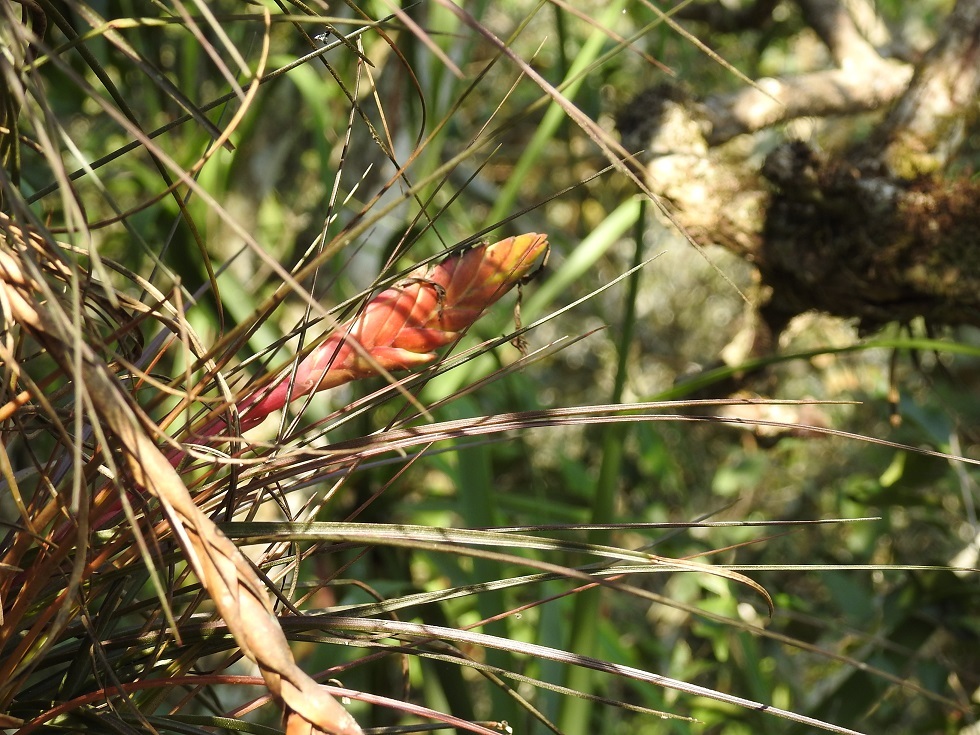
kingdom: Plantae
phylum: Tracheophyta
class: Liliopsida
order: Poales
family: Bromeliaceae
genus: Tillandsia
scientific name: Tillandsia zoquensis
